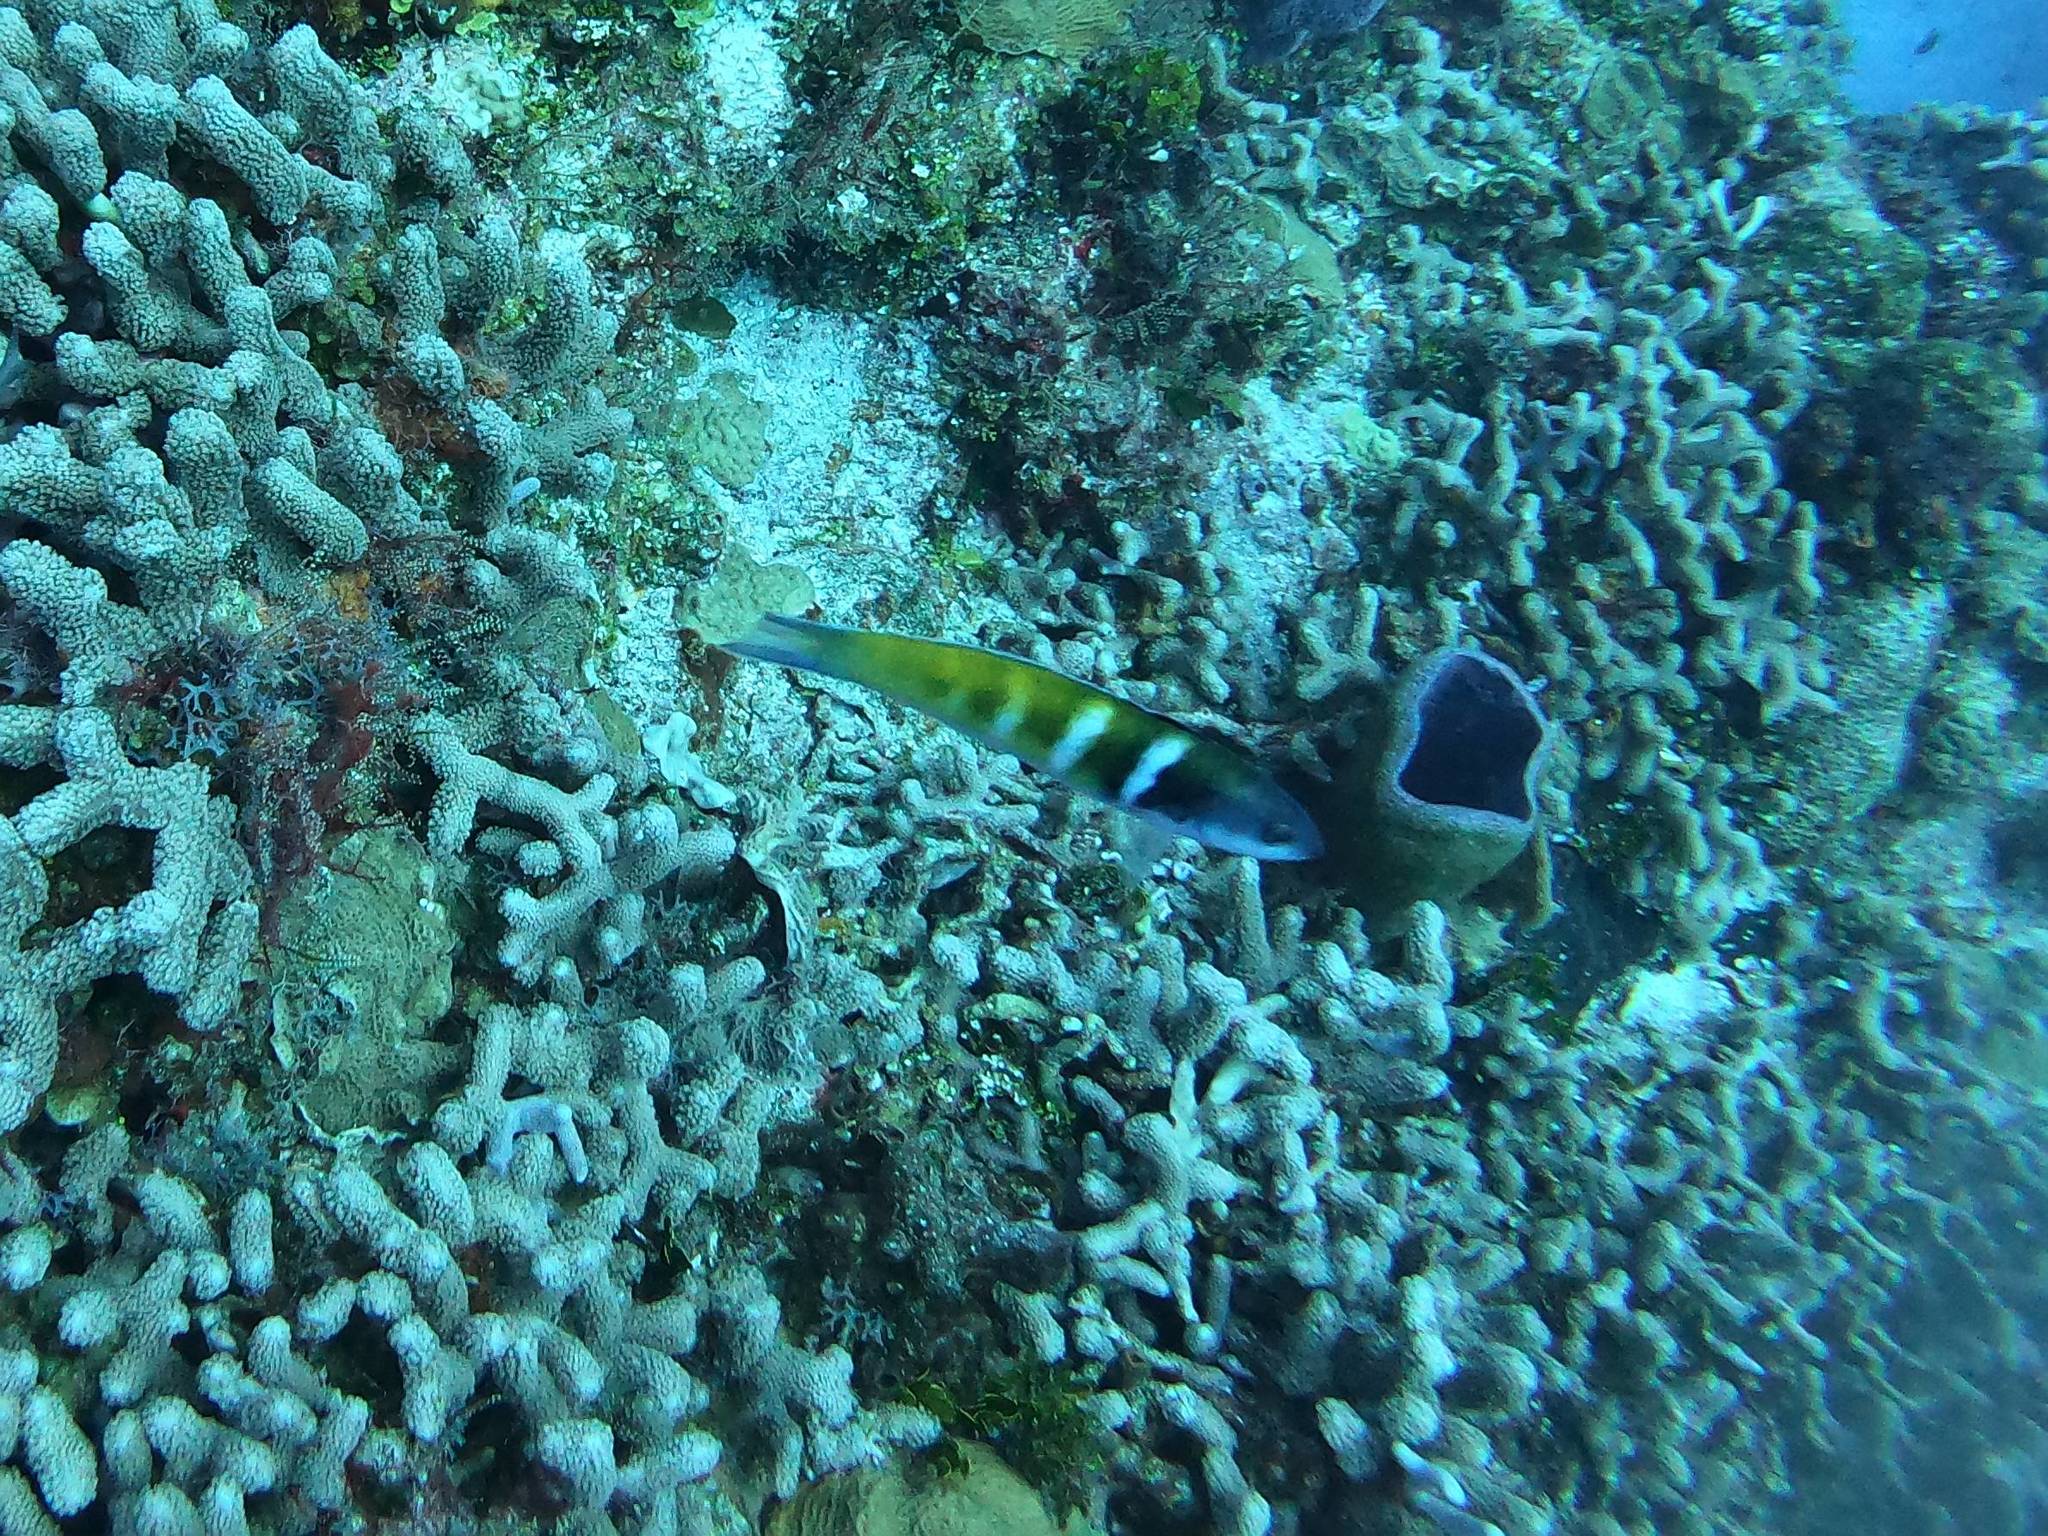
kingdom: Animalia
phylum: Chordata
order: Perciformes
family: Labridae
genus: Thalassoma
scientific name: Thalassoma bifasciatum
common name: Bluehead wrasse
